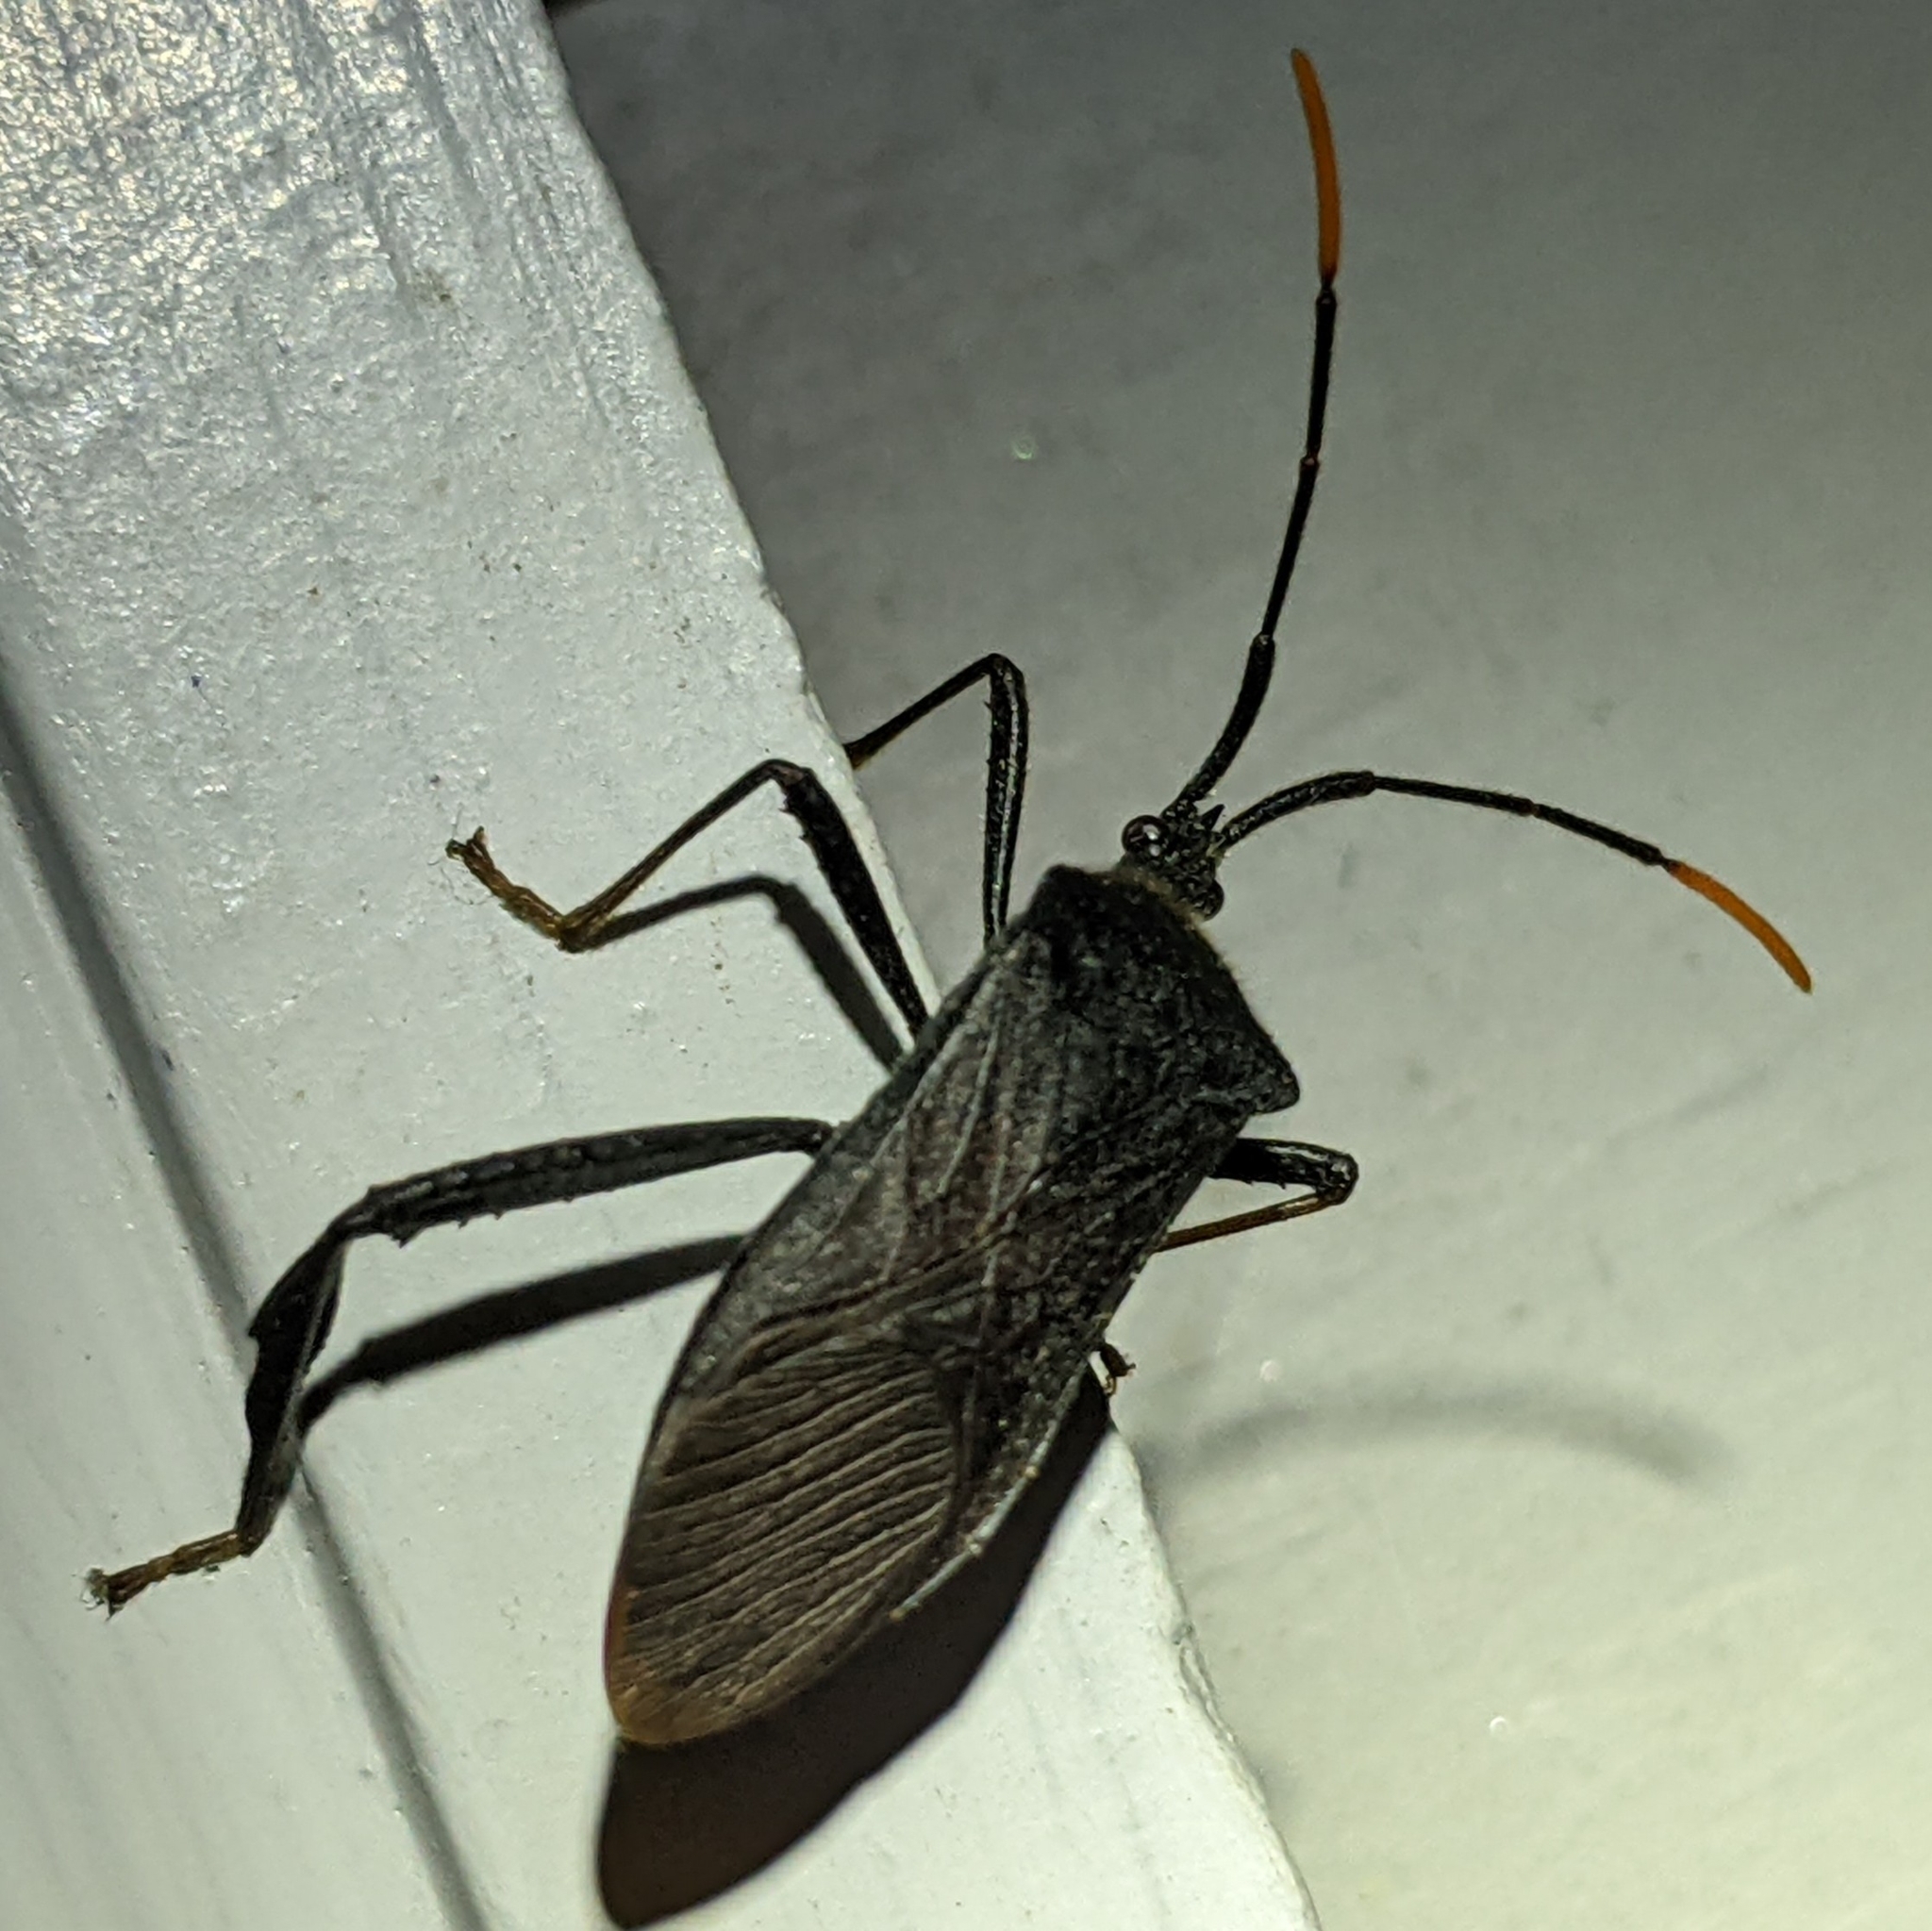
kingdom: Animalia
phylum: Arthropoda
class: Insecta
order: Hemiptera
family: Coreidae
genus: Acanthocephala
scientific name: Acanthocephala terminalis
